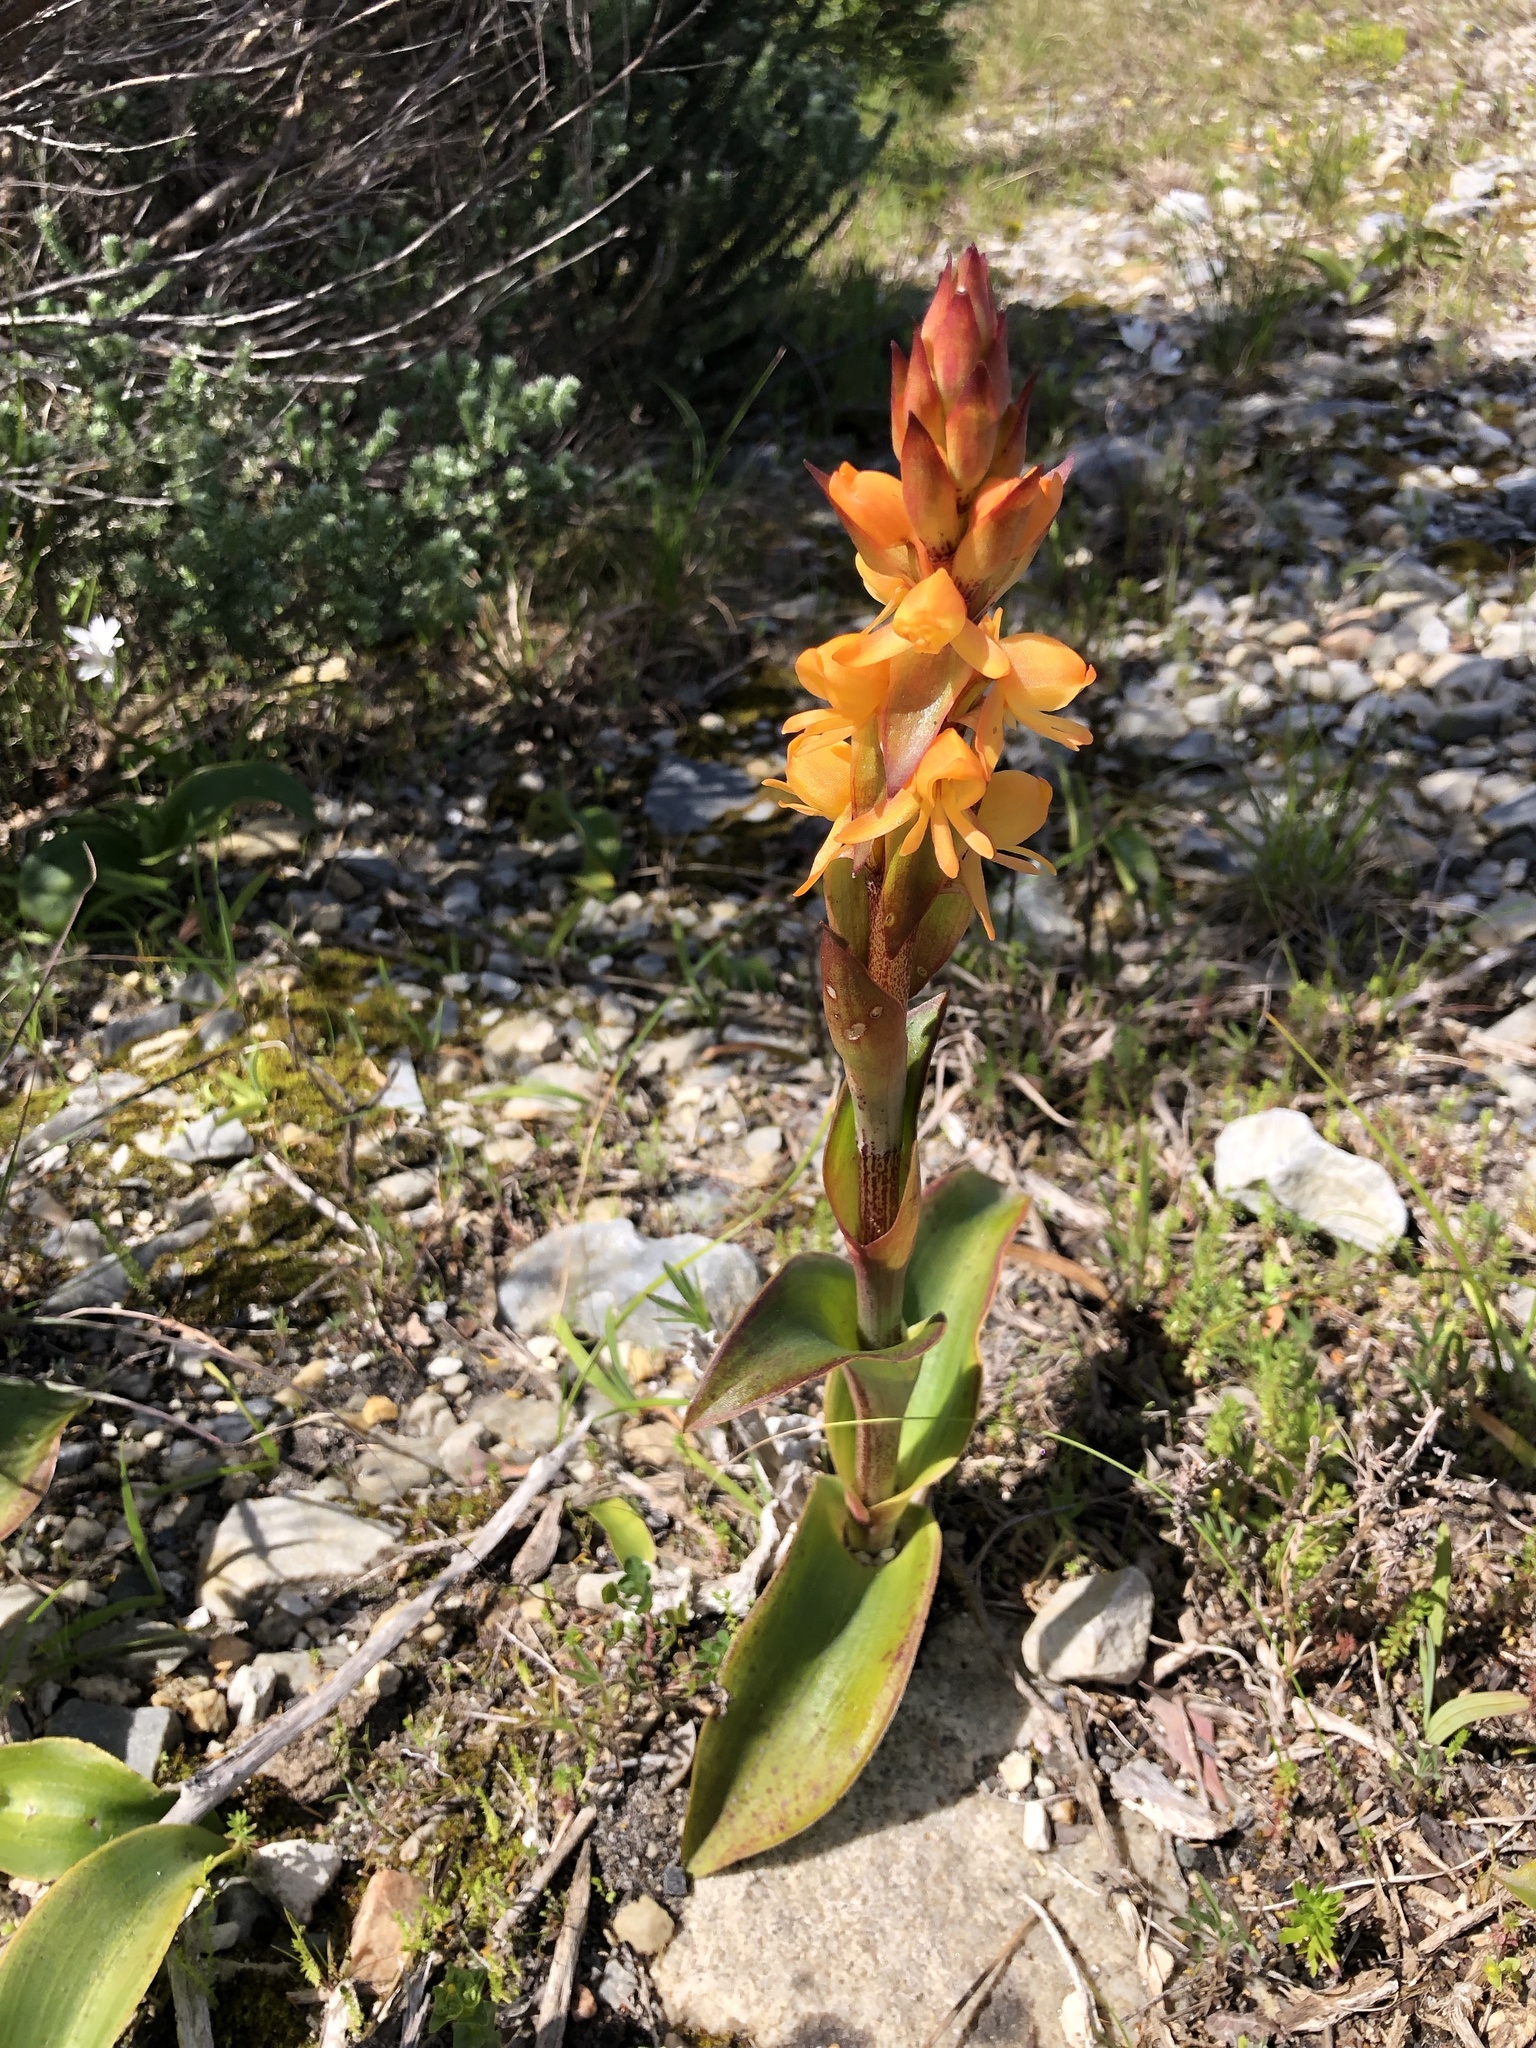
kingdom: Plantae
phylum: Tracheophyta
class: Liliopsida
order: Asparagales
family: Orchidaceae
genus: Satyrium
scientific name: Satyrium coriifolium
